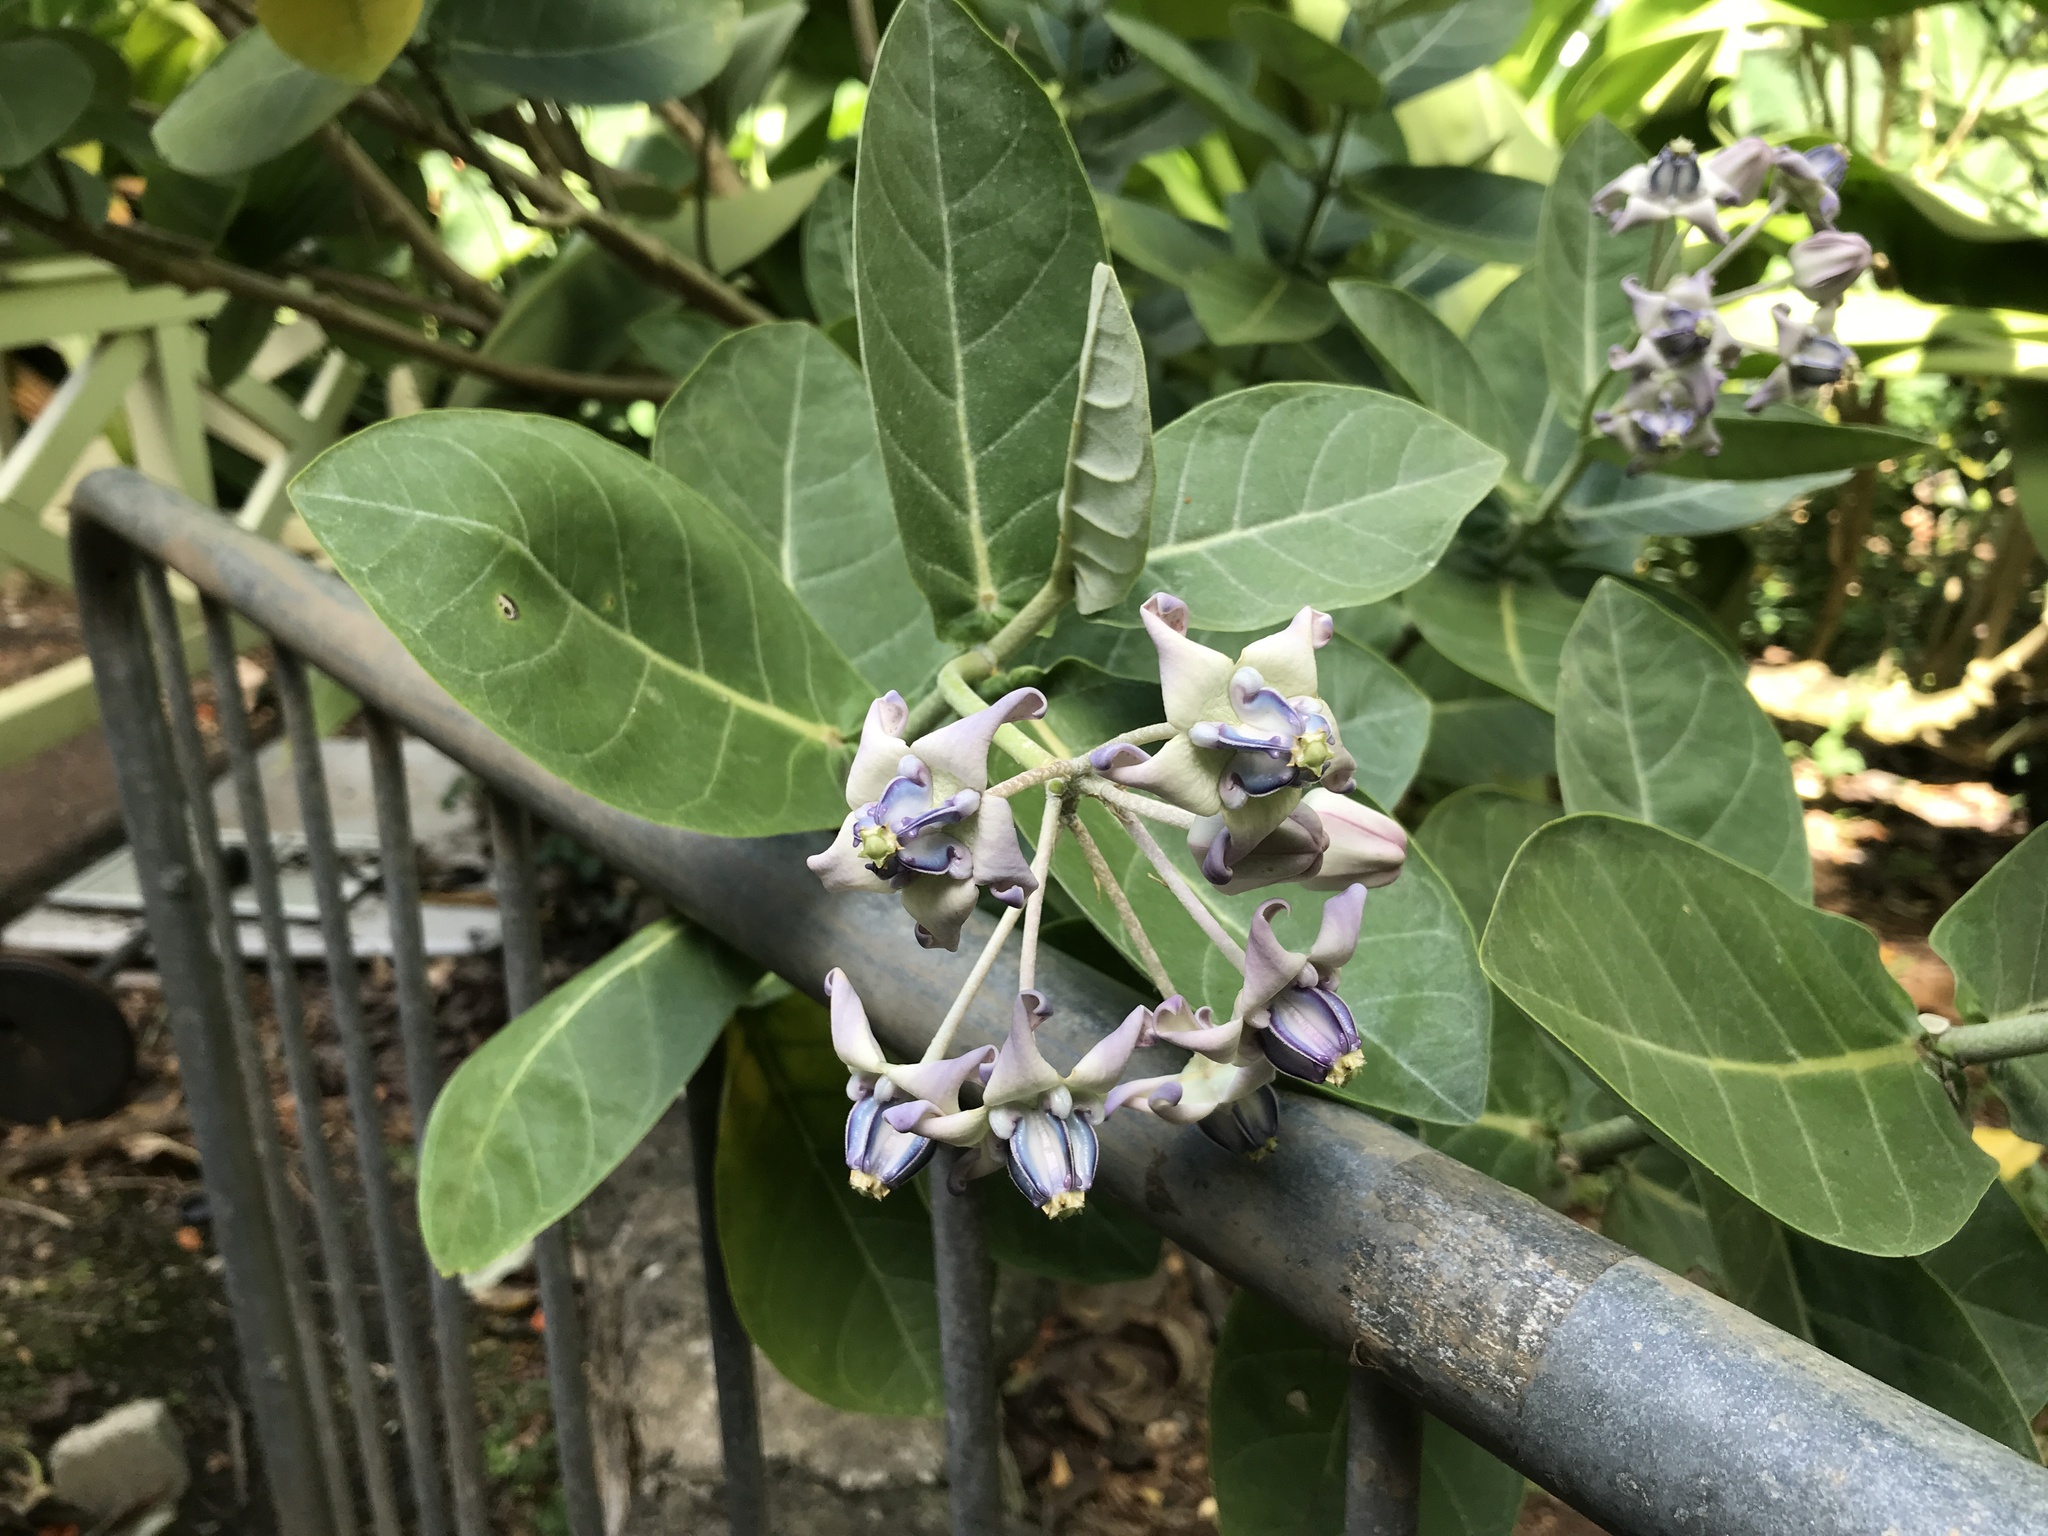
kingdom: Plantae
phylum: Tracheophyta
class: Magnoliopsida
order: Gentianales
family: Apocynaceae
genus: Calotropis
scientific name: Calotropis gigantea
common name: Crown flower
